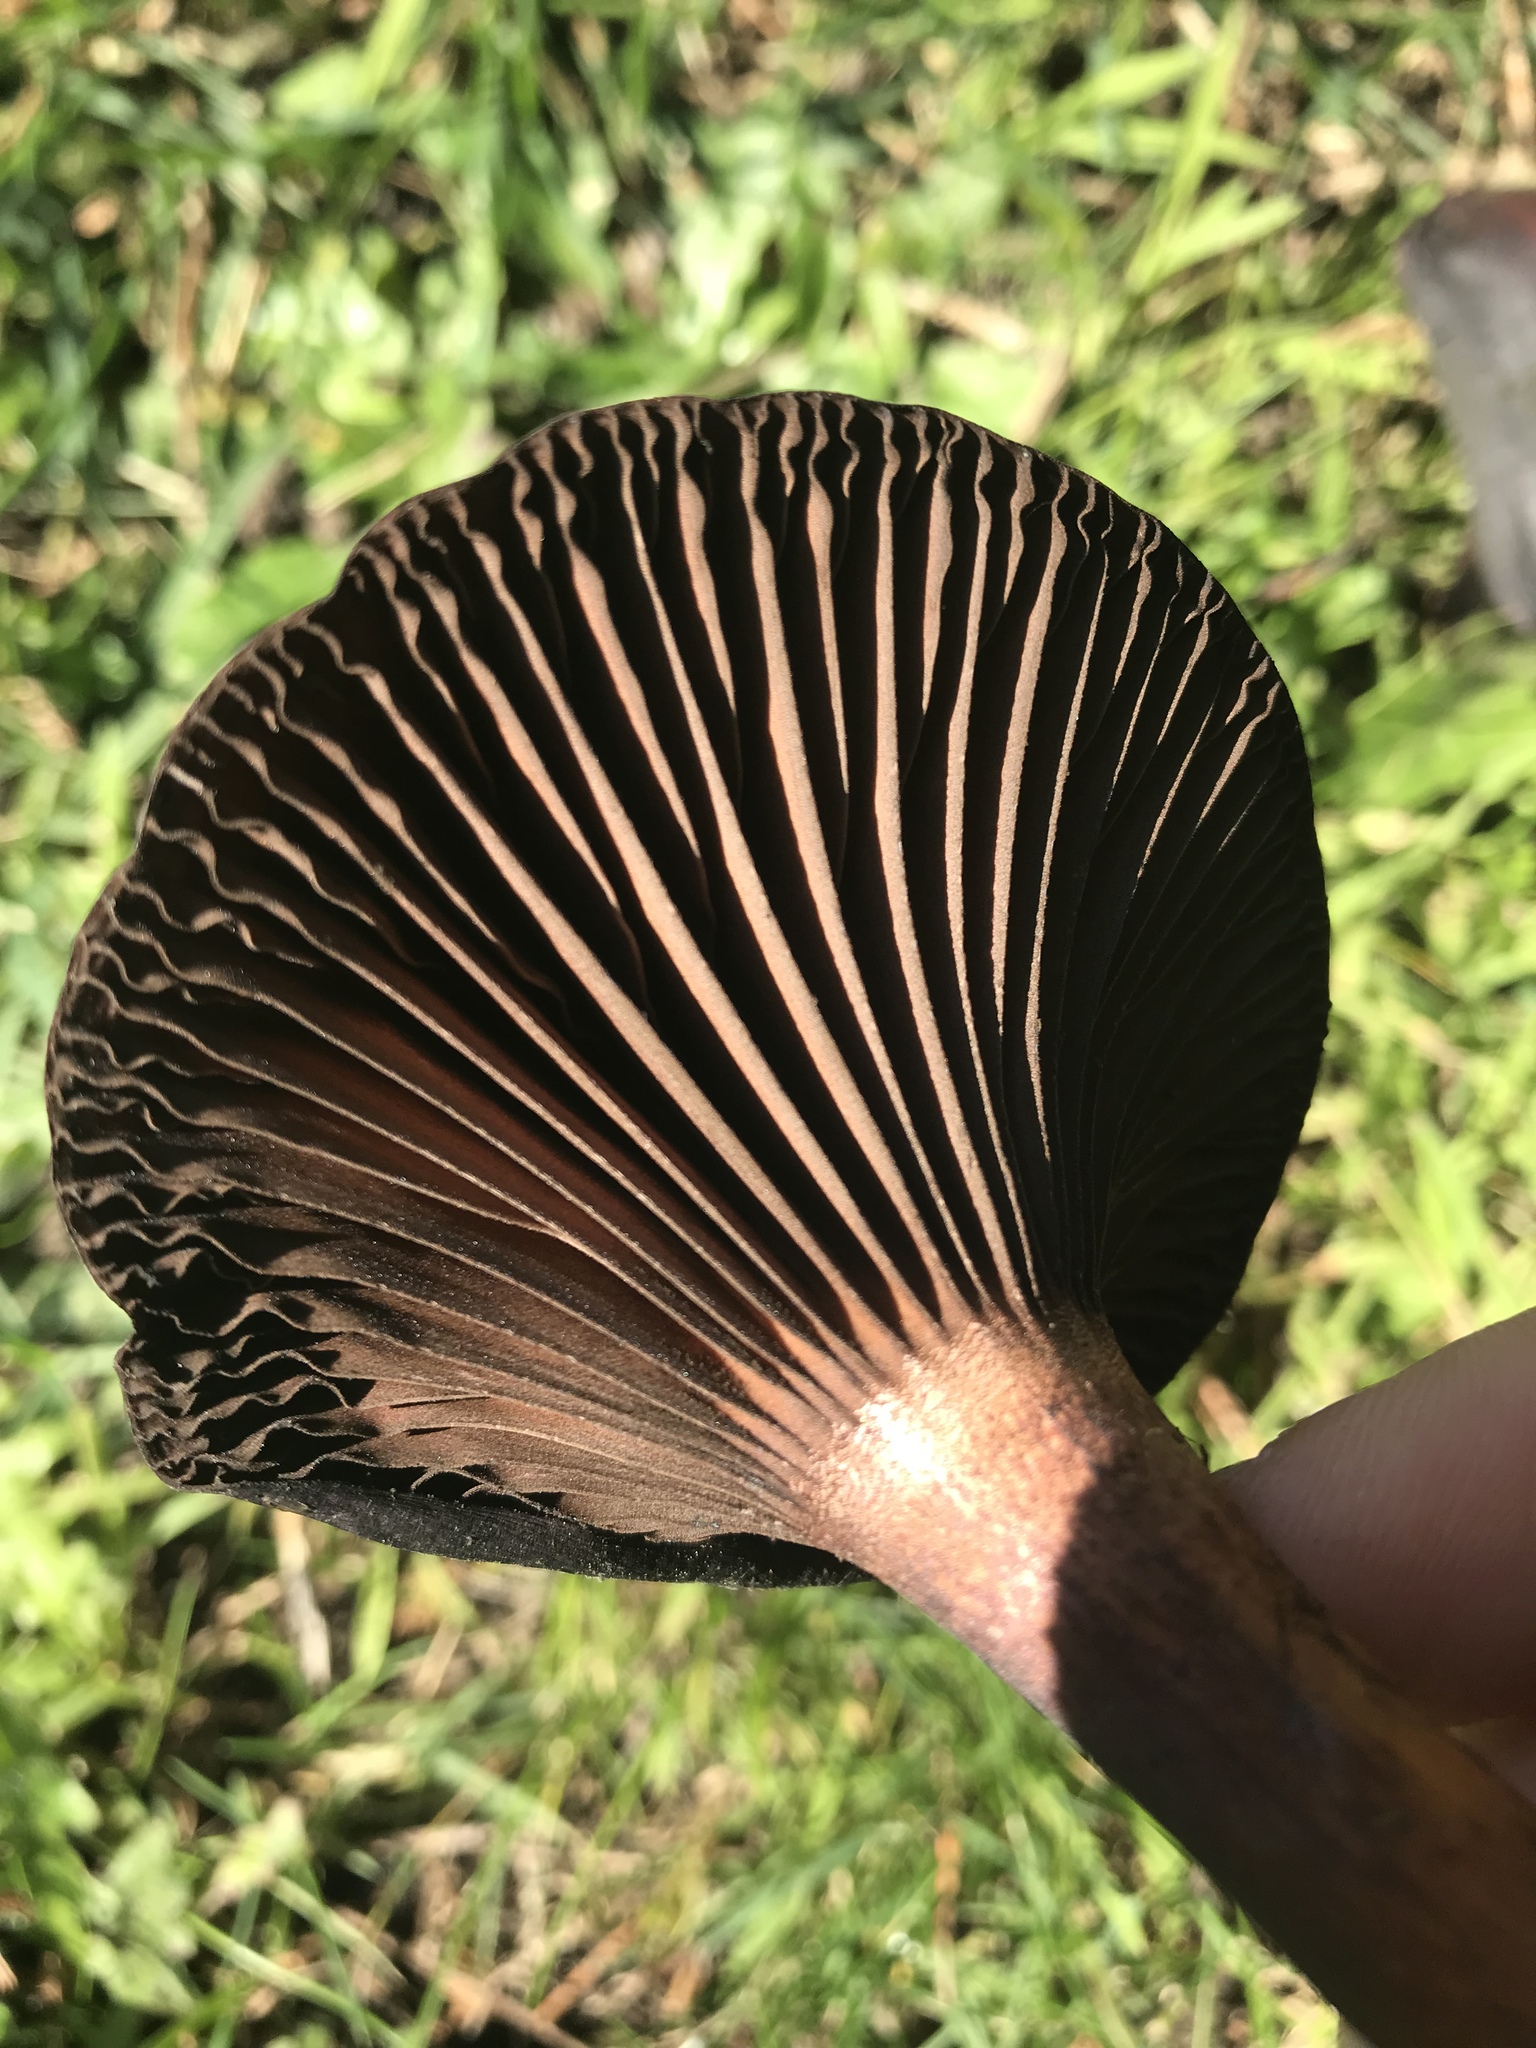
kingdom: Fungi
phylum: Basidiomycota
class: Agaricomycetes
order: Boletales
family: Gomphidiaceae
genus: Chroogomphus
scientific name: Chroogomphus vinicolor
